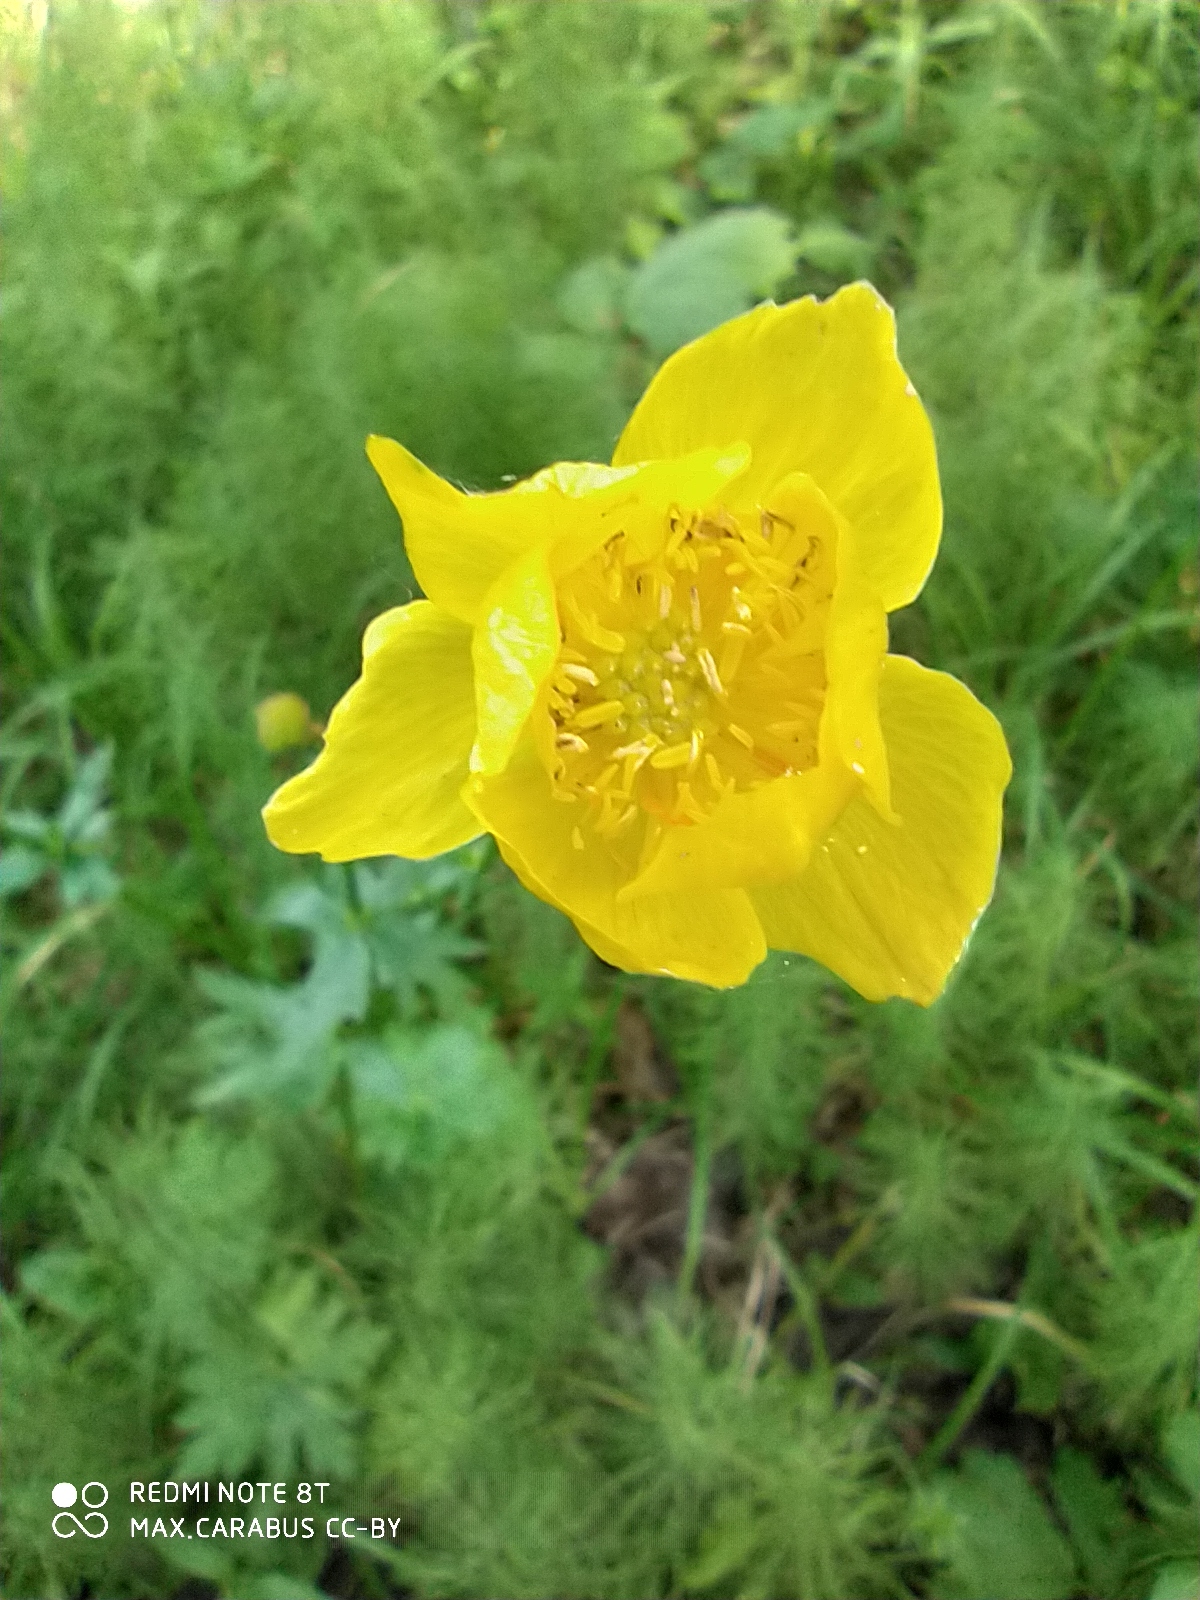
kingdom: Plantae
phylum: Tracheophyta
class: Magnoliopsida
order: Ranunculales
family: Ranunculaceae
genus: Trollius
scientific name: Trollius europaeus
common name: European globeflower
